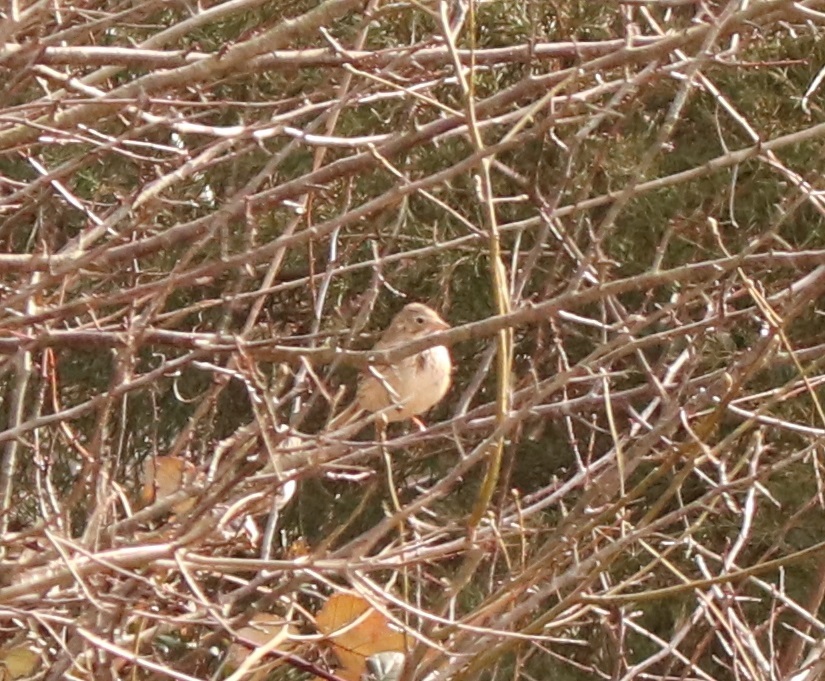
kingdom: Animalia
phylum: Chordata
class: Aves
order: Passeriformes
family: Passerellidae
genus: Pooecetes
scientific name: Pooecetes gramineus
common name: Vesper sparrow
